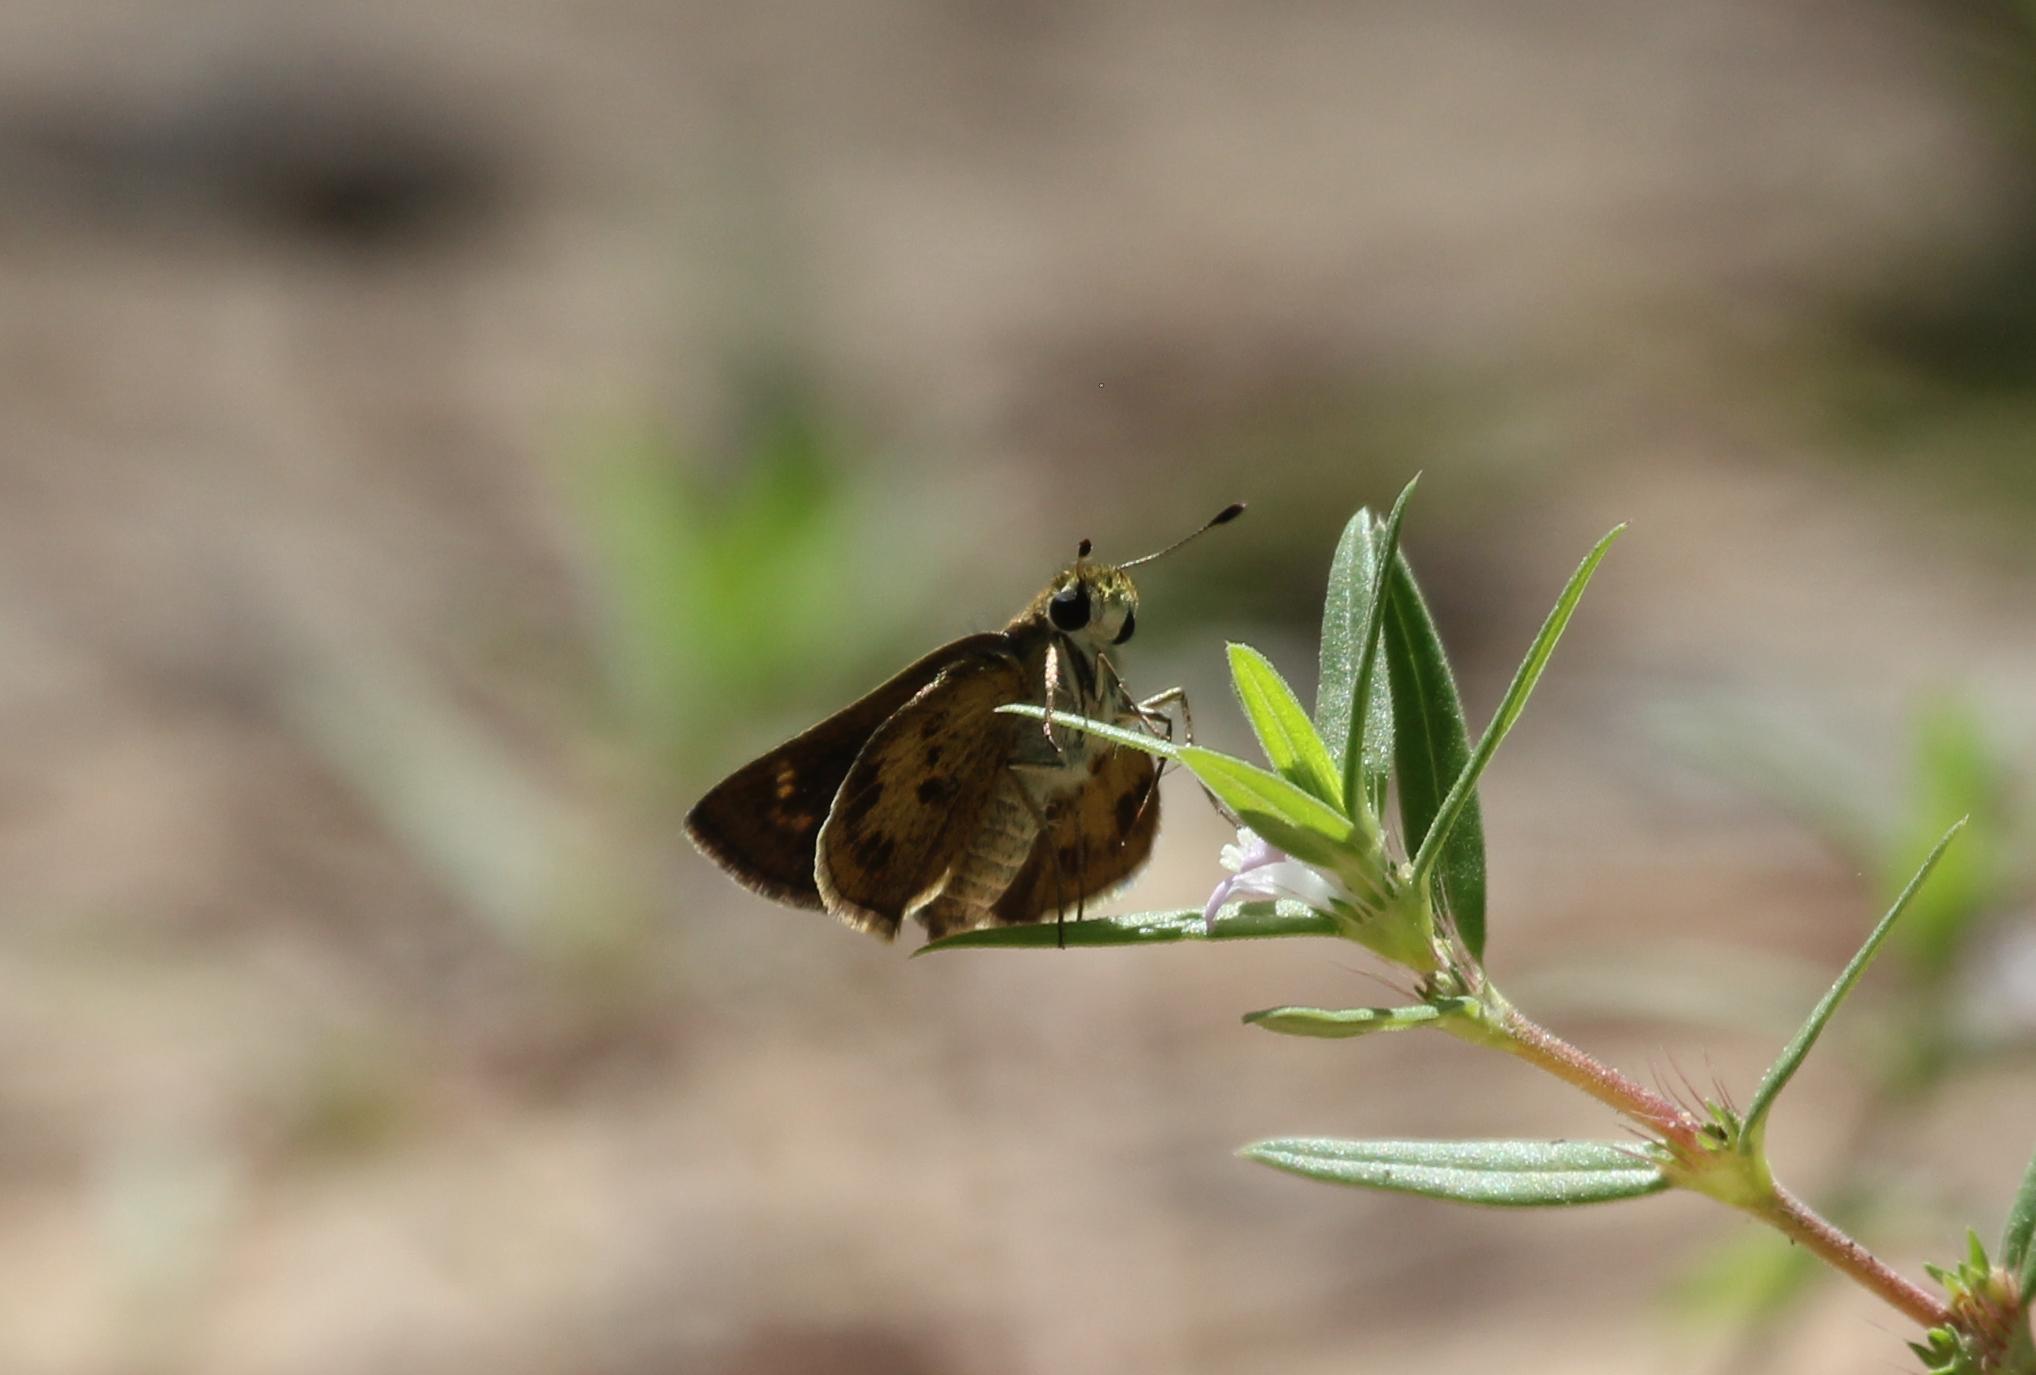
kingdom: Animalia
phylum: Arthropoda
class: Insecta
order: Lepidoptera
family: Hesperiidae
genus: Polites
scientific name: Polites vibex
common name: Whirlabout
